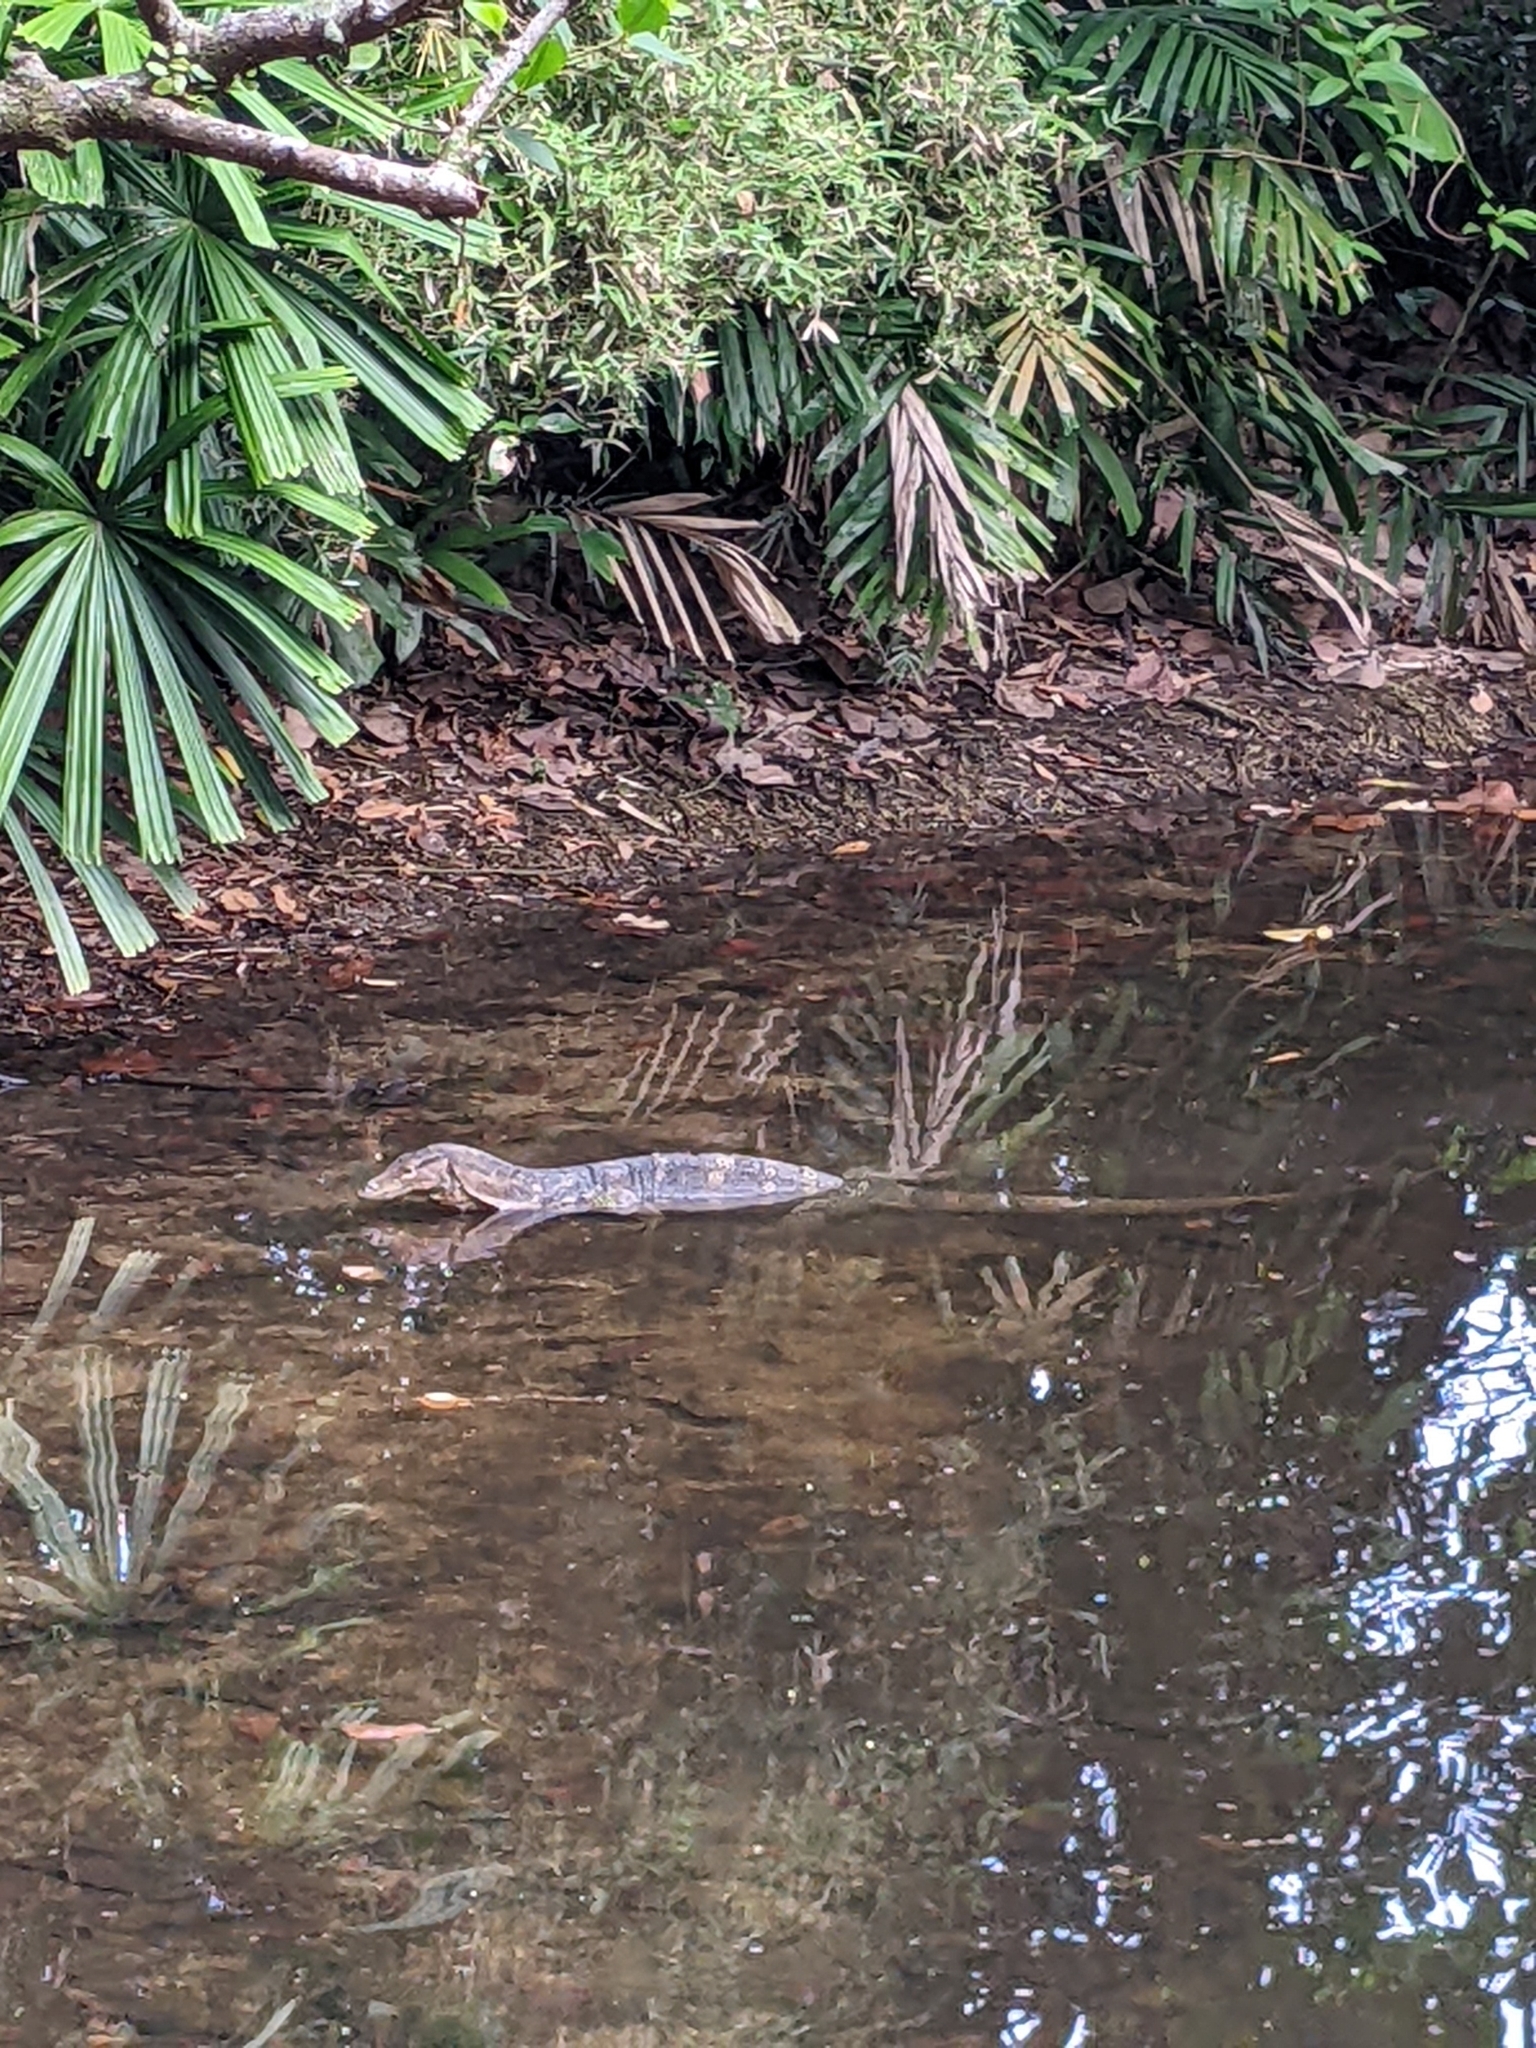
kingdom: Animalia
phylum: Chordata
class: Squamata
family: Varanidae
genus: Varanus
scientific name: Varanus salvator
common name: Common water monitor
